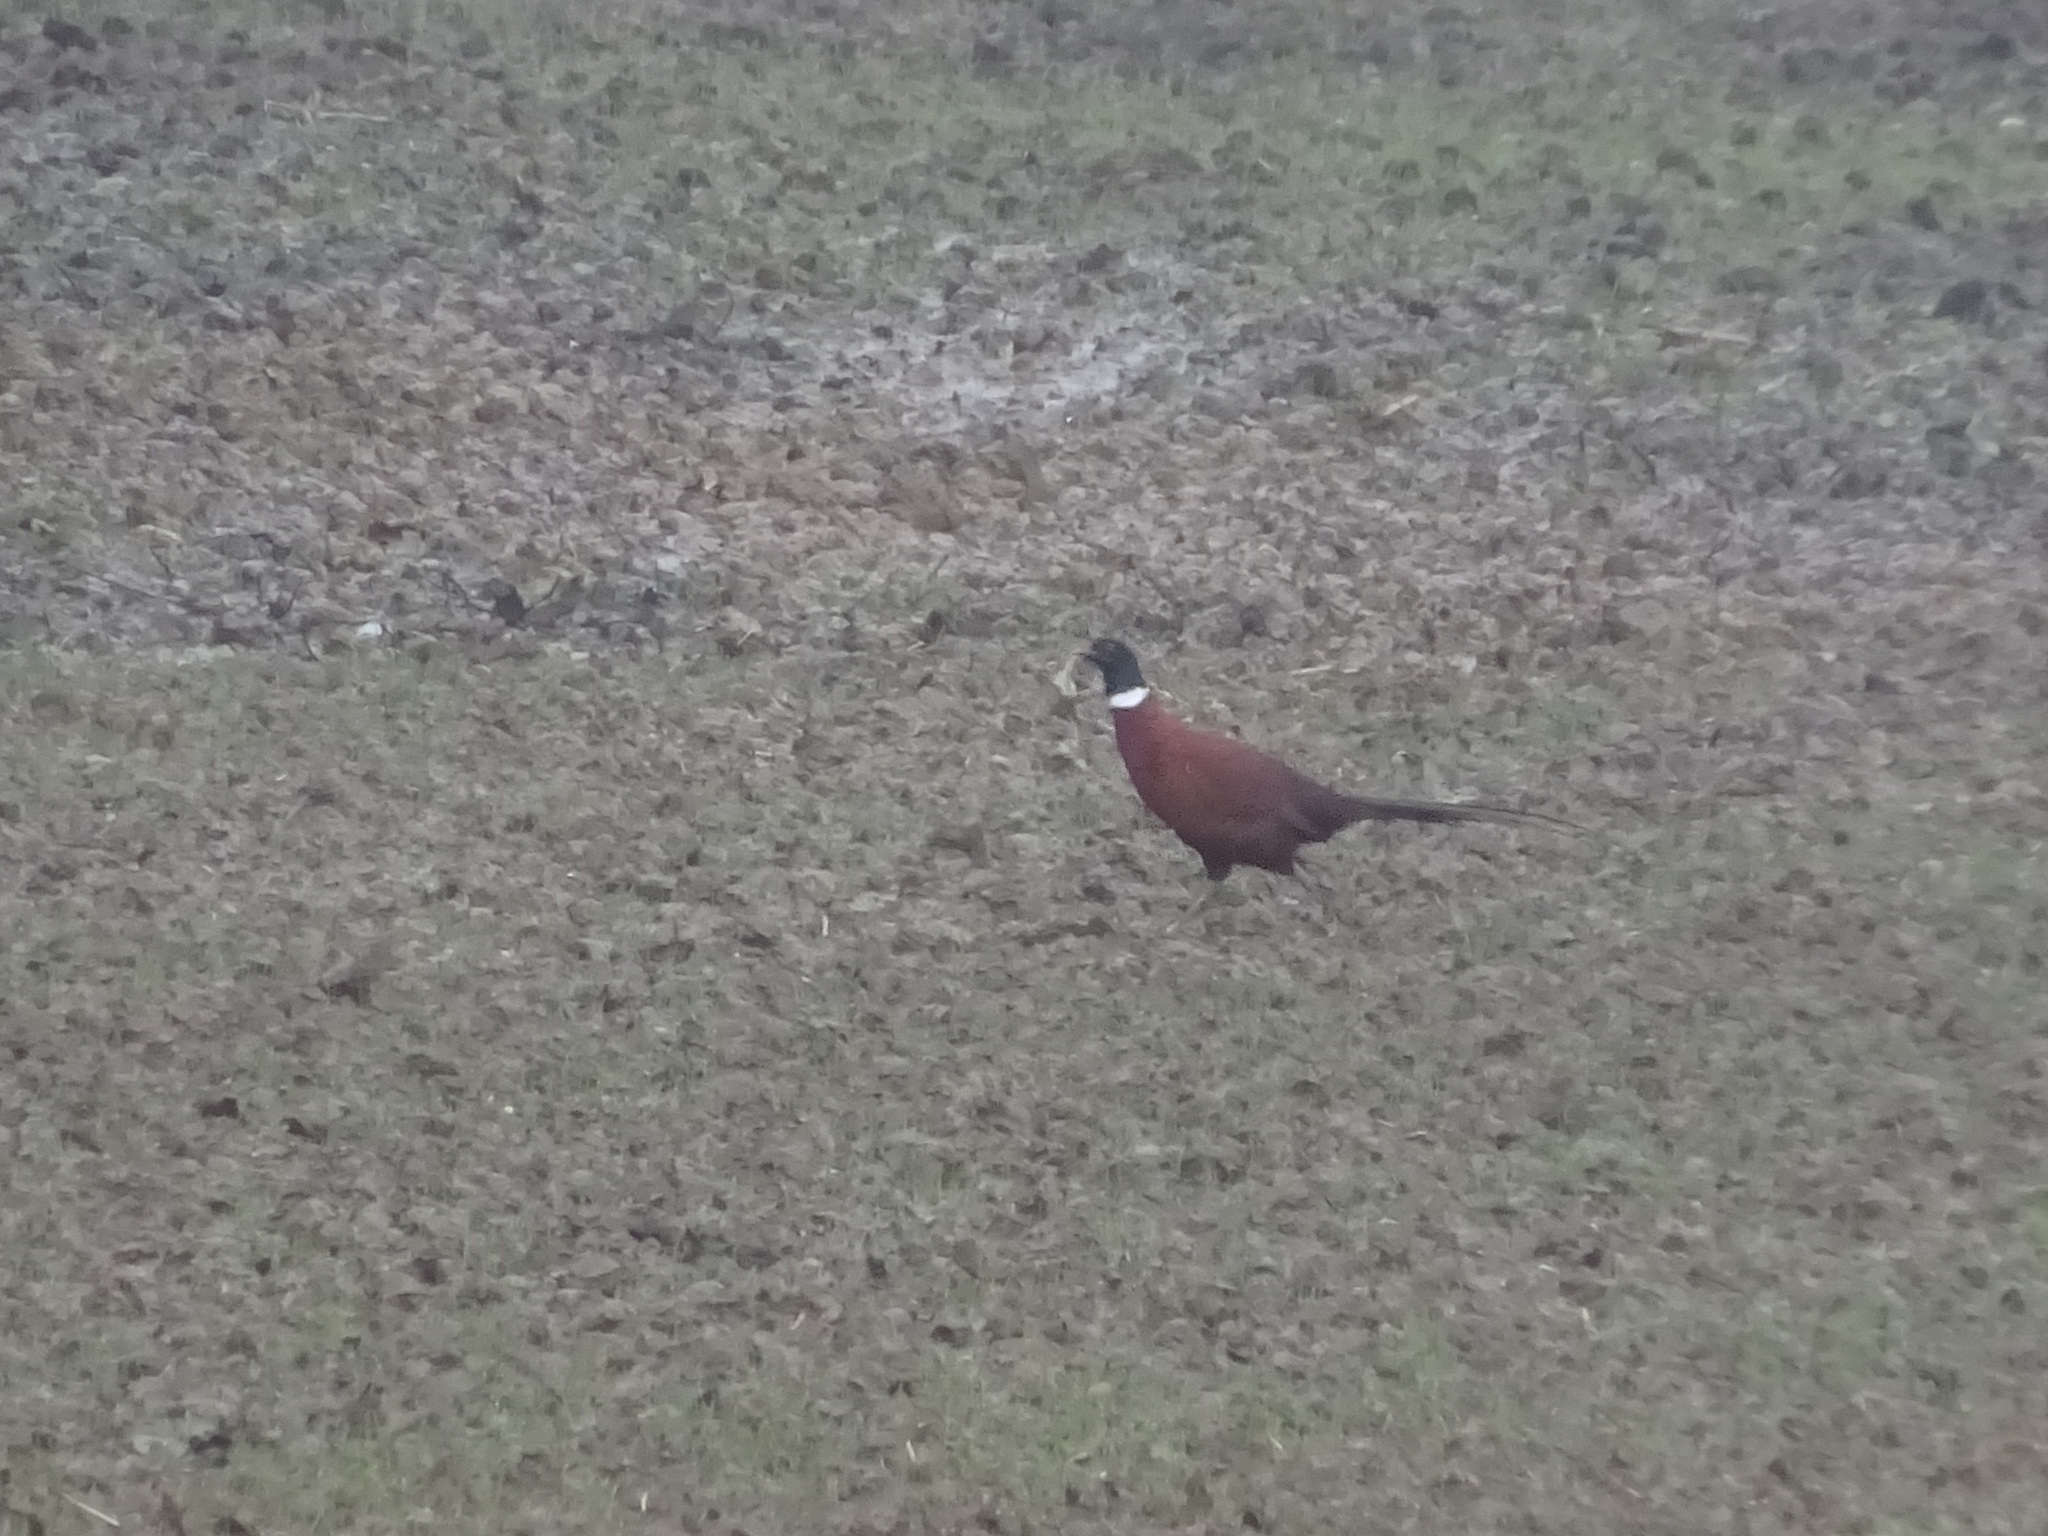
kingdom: Animalia
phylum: Chordata
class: Aves
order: Galliformes
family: Phasianidae
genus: Phasianus
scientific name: Phasianus colchicus
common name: Common pheasant
